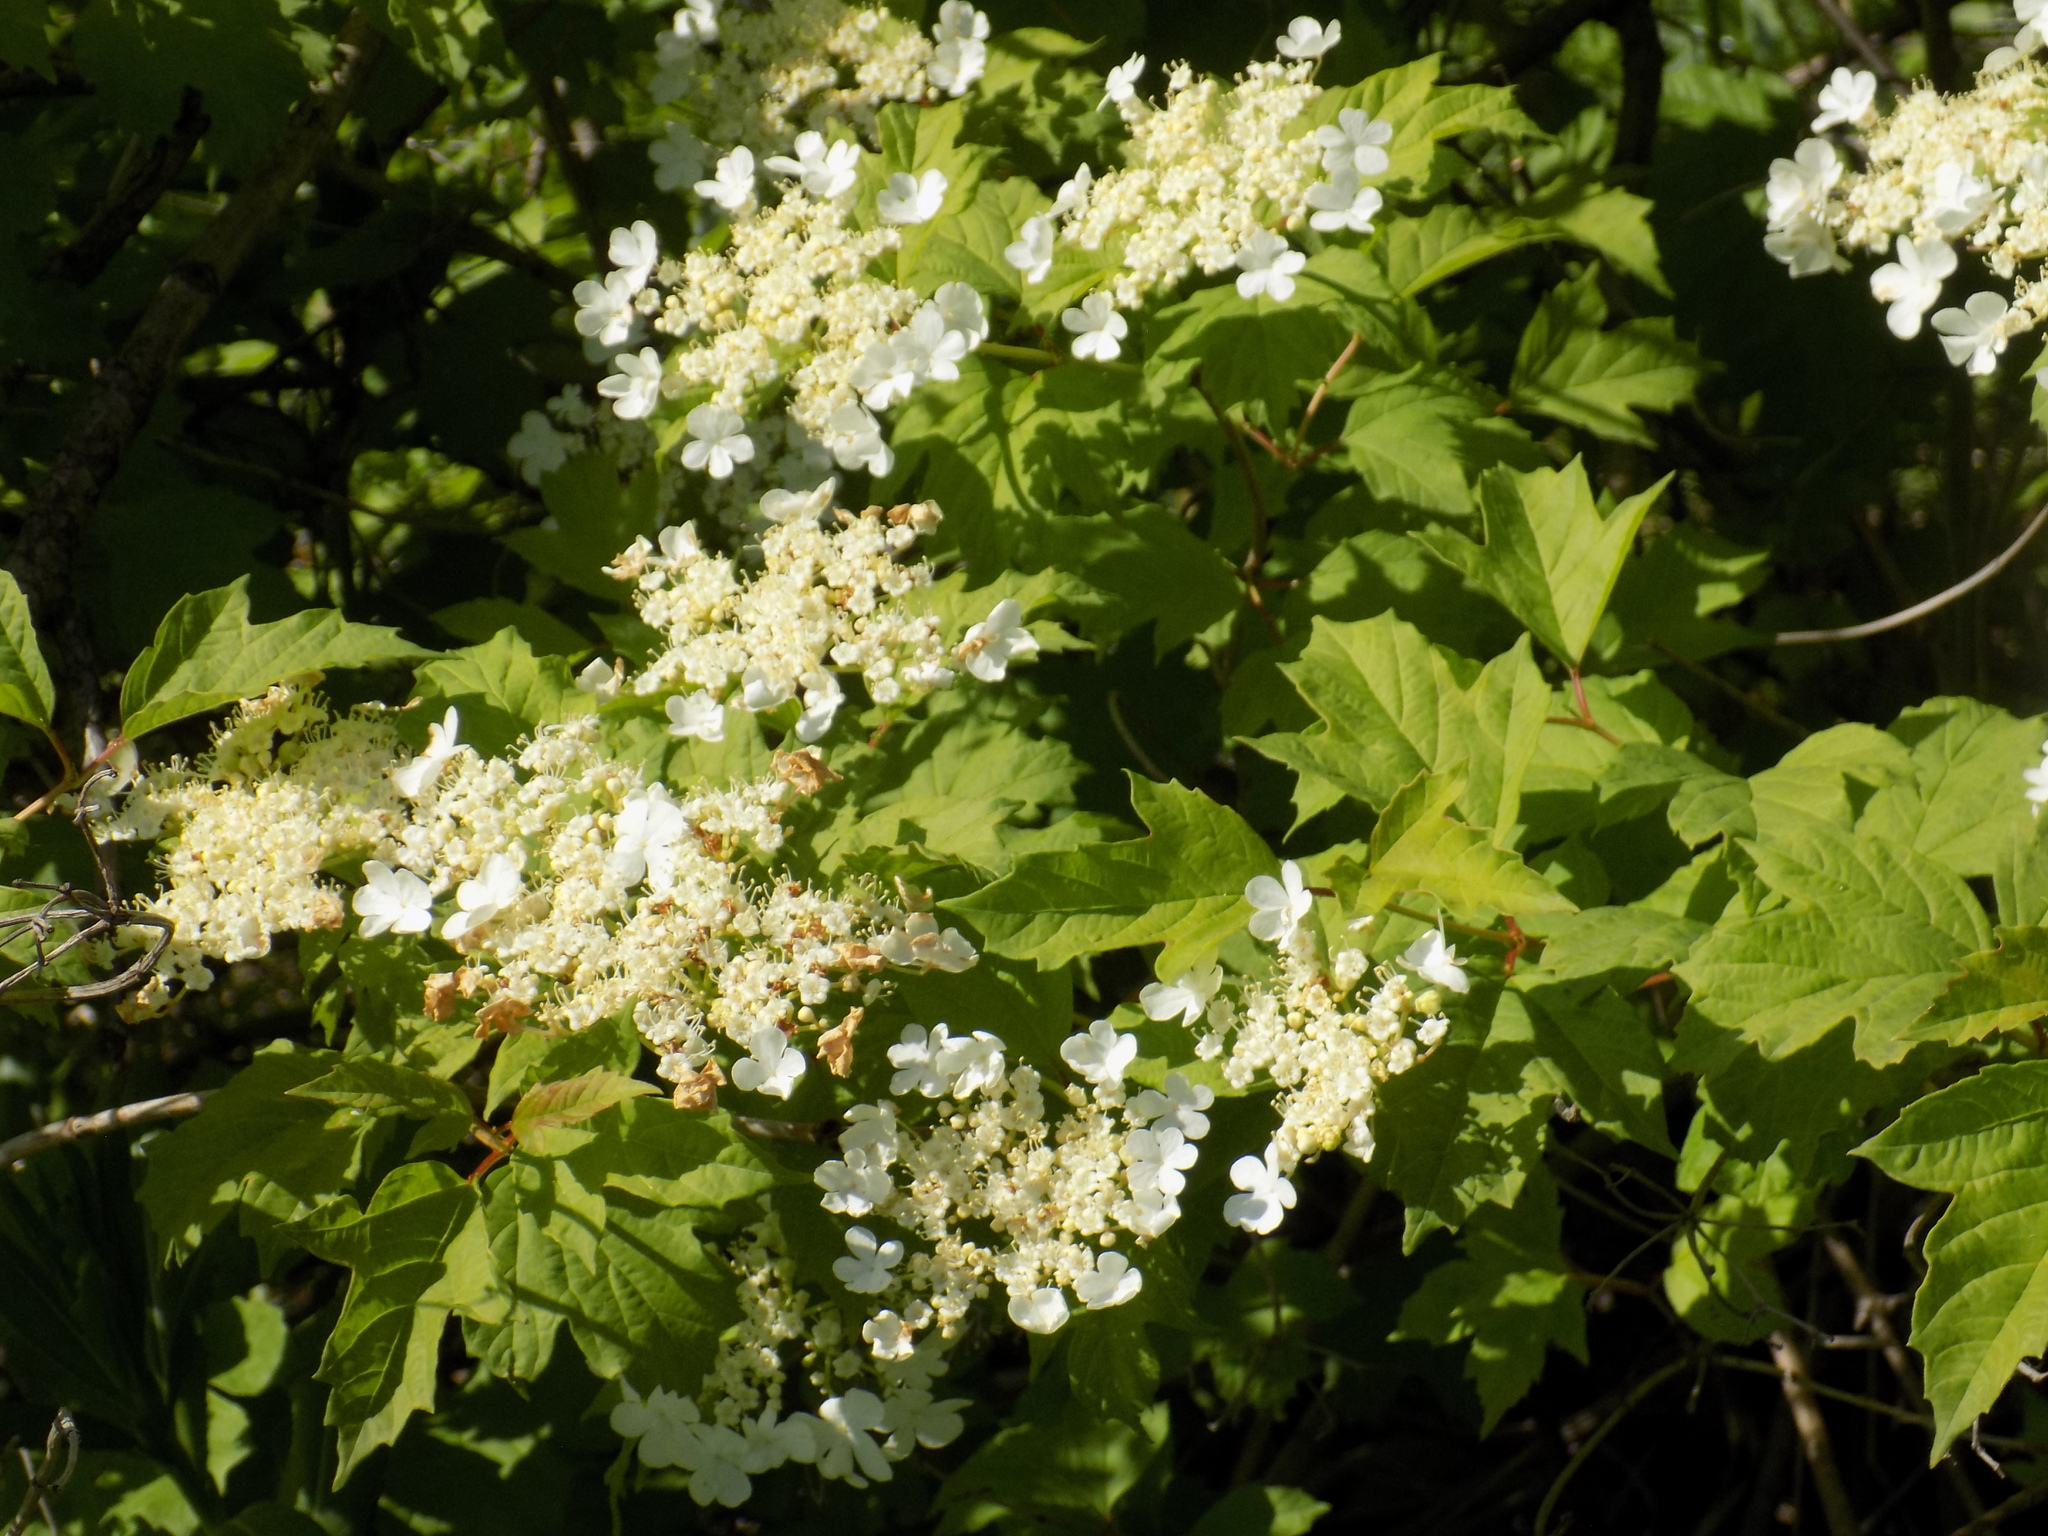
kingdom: Plantae
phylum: Tracheophyta
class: Magnoliopsida
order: Dipsacales
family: Viburnaceae
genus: Viburnum
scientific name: Viburnum opulus
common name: Guelder-rose
